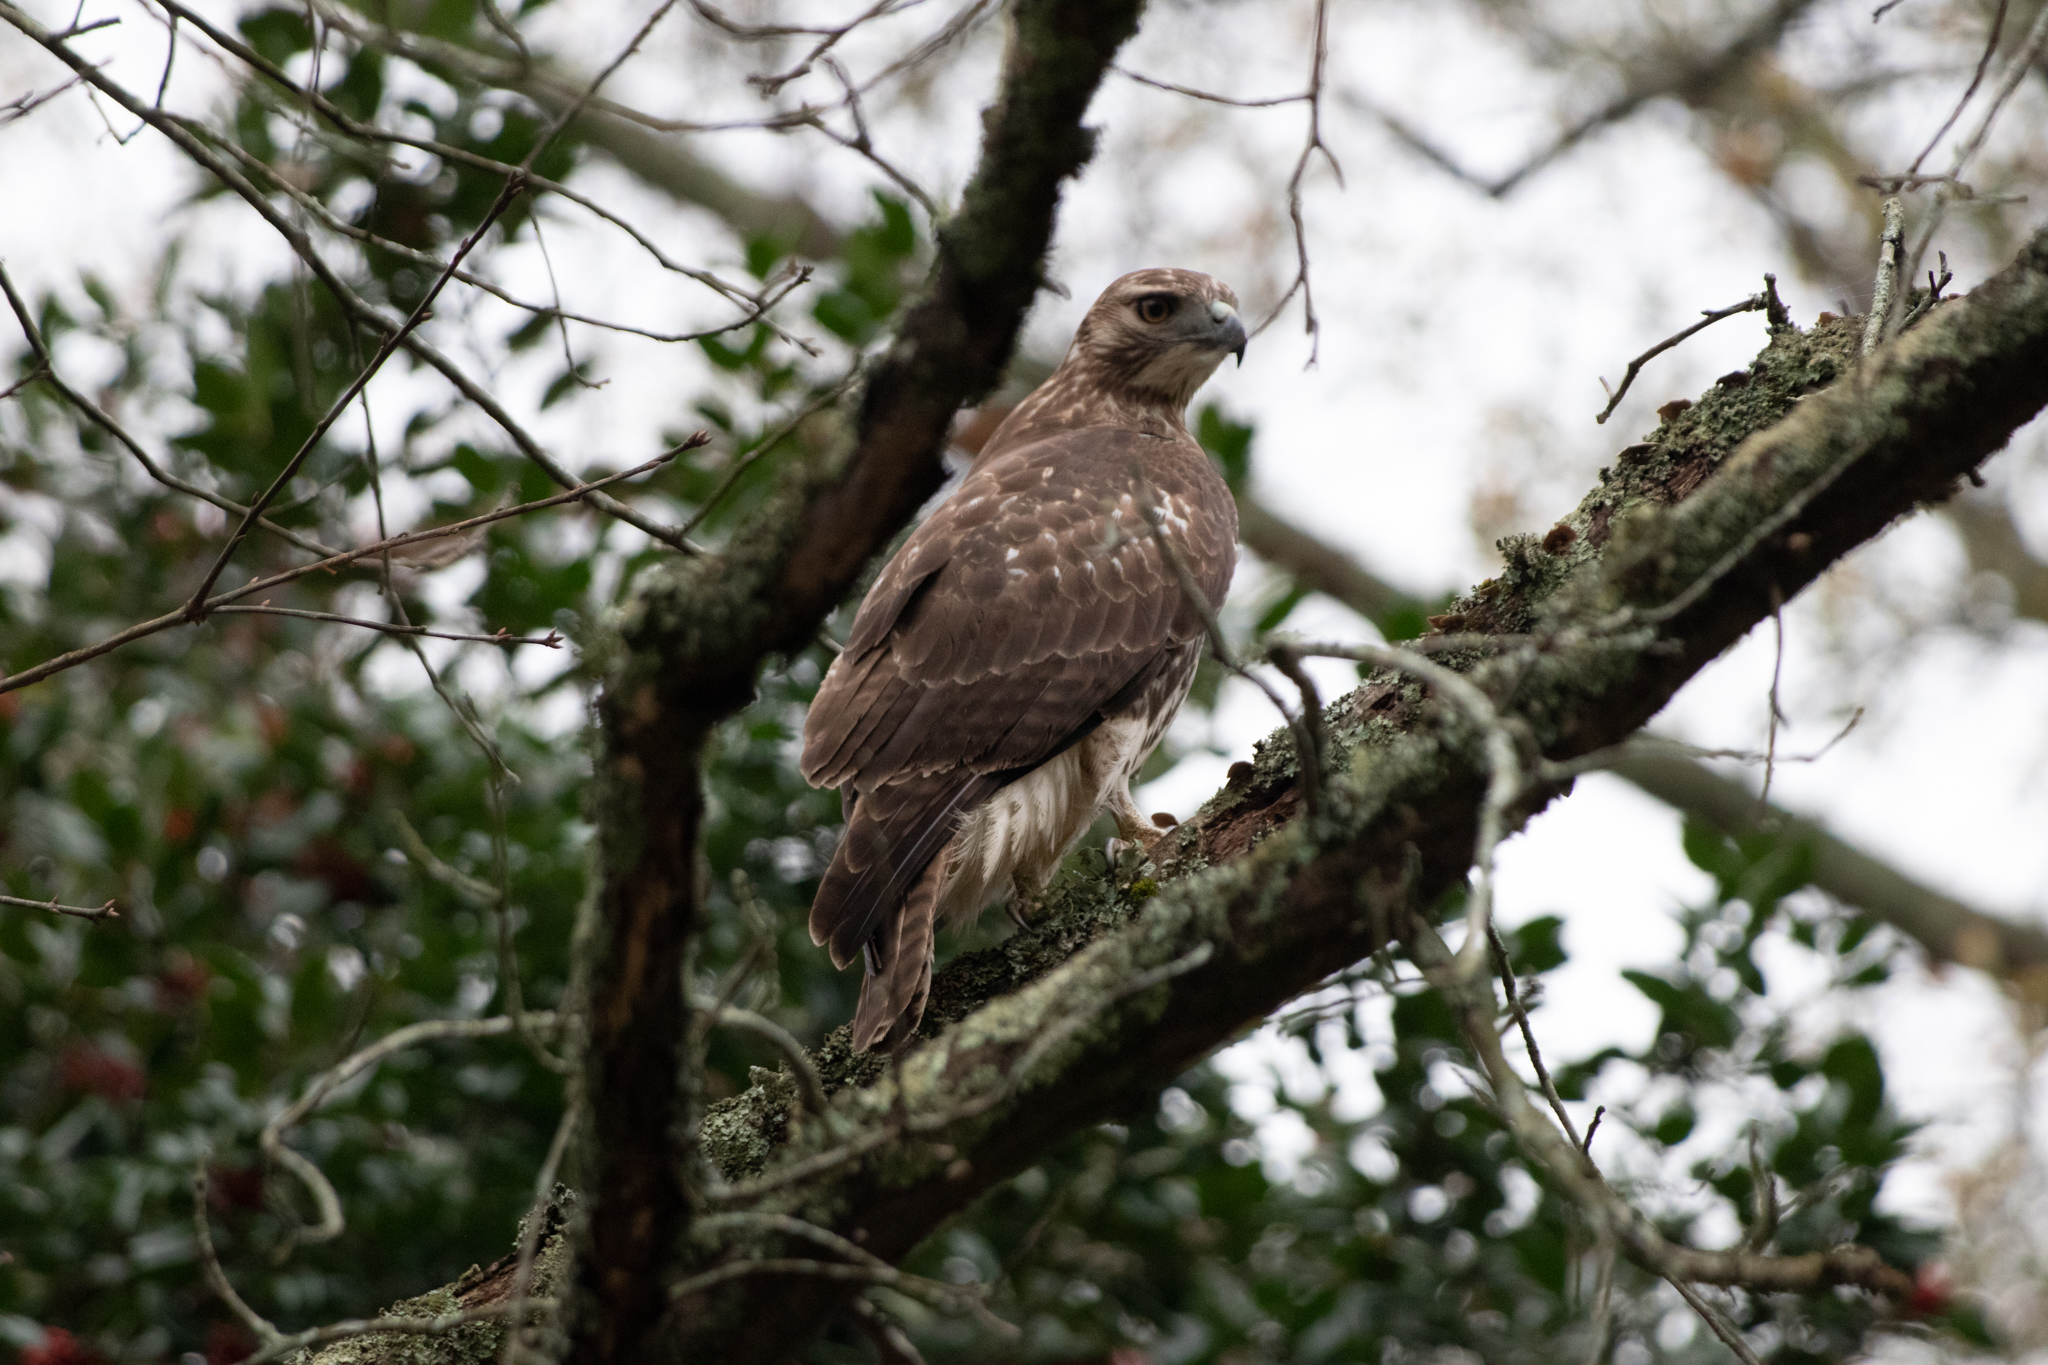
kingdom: Animalia
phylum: Chordata
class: Aves
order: Accipitriformes
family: Accipitridae
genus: Buteo
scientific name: Buteo jamaicensis
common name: Red-tailed hawk
